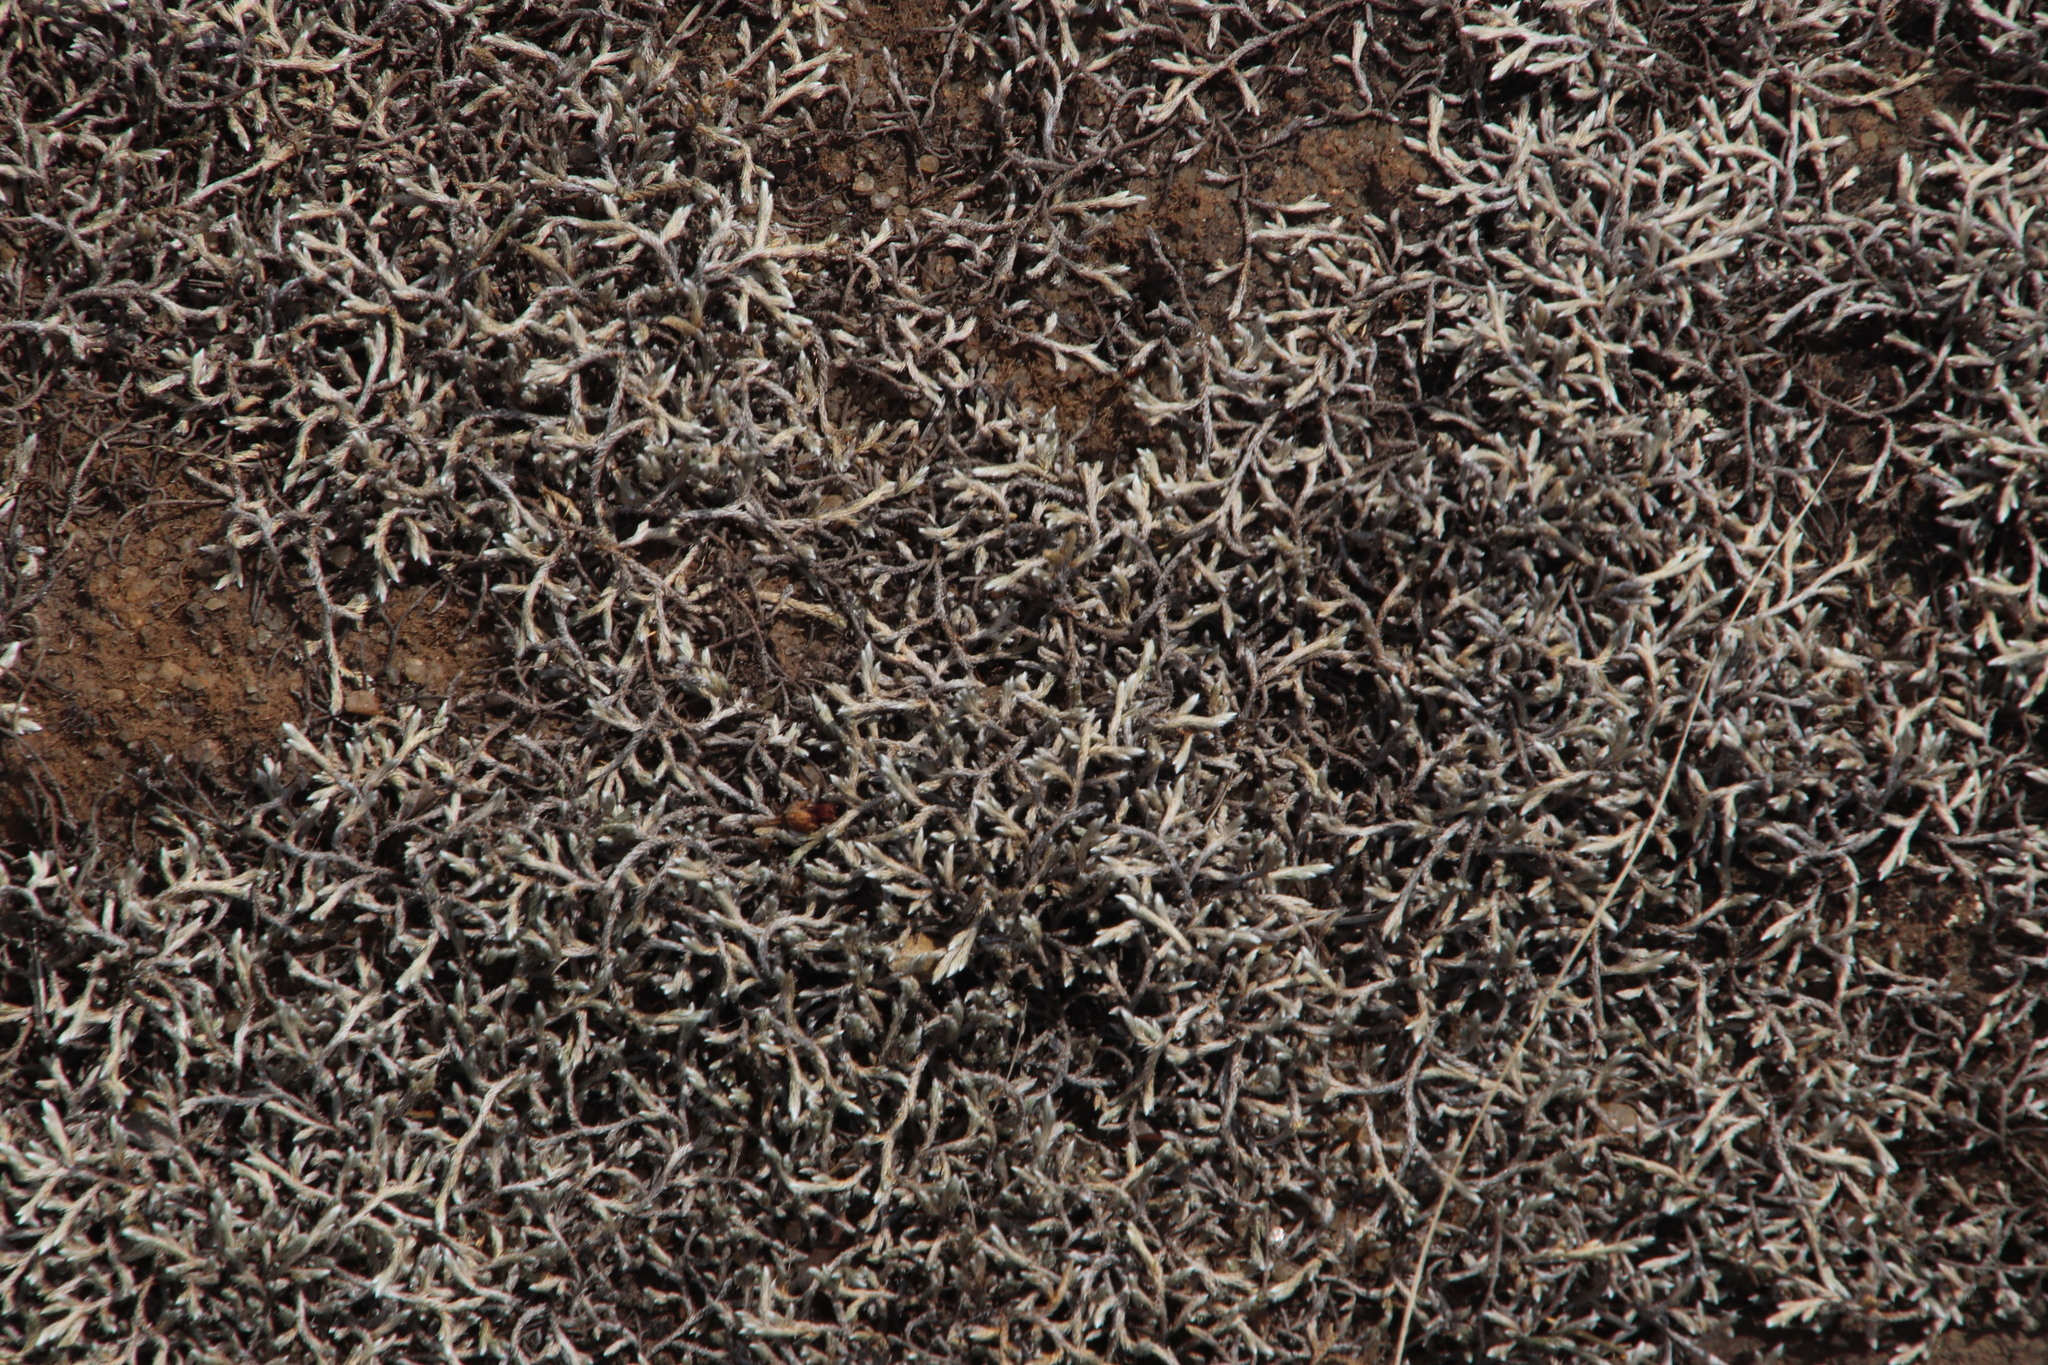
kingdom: Plantae
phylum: Tracheophyta
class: Lycopodiopsida
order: Selaginellales
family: Selaginellaceae
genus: Selaginella
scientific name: Selaginella dregei
